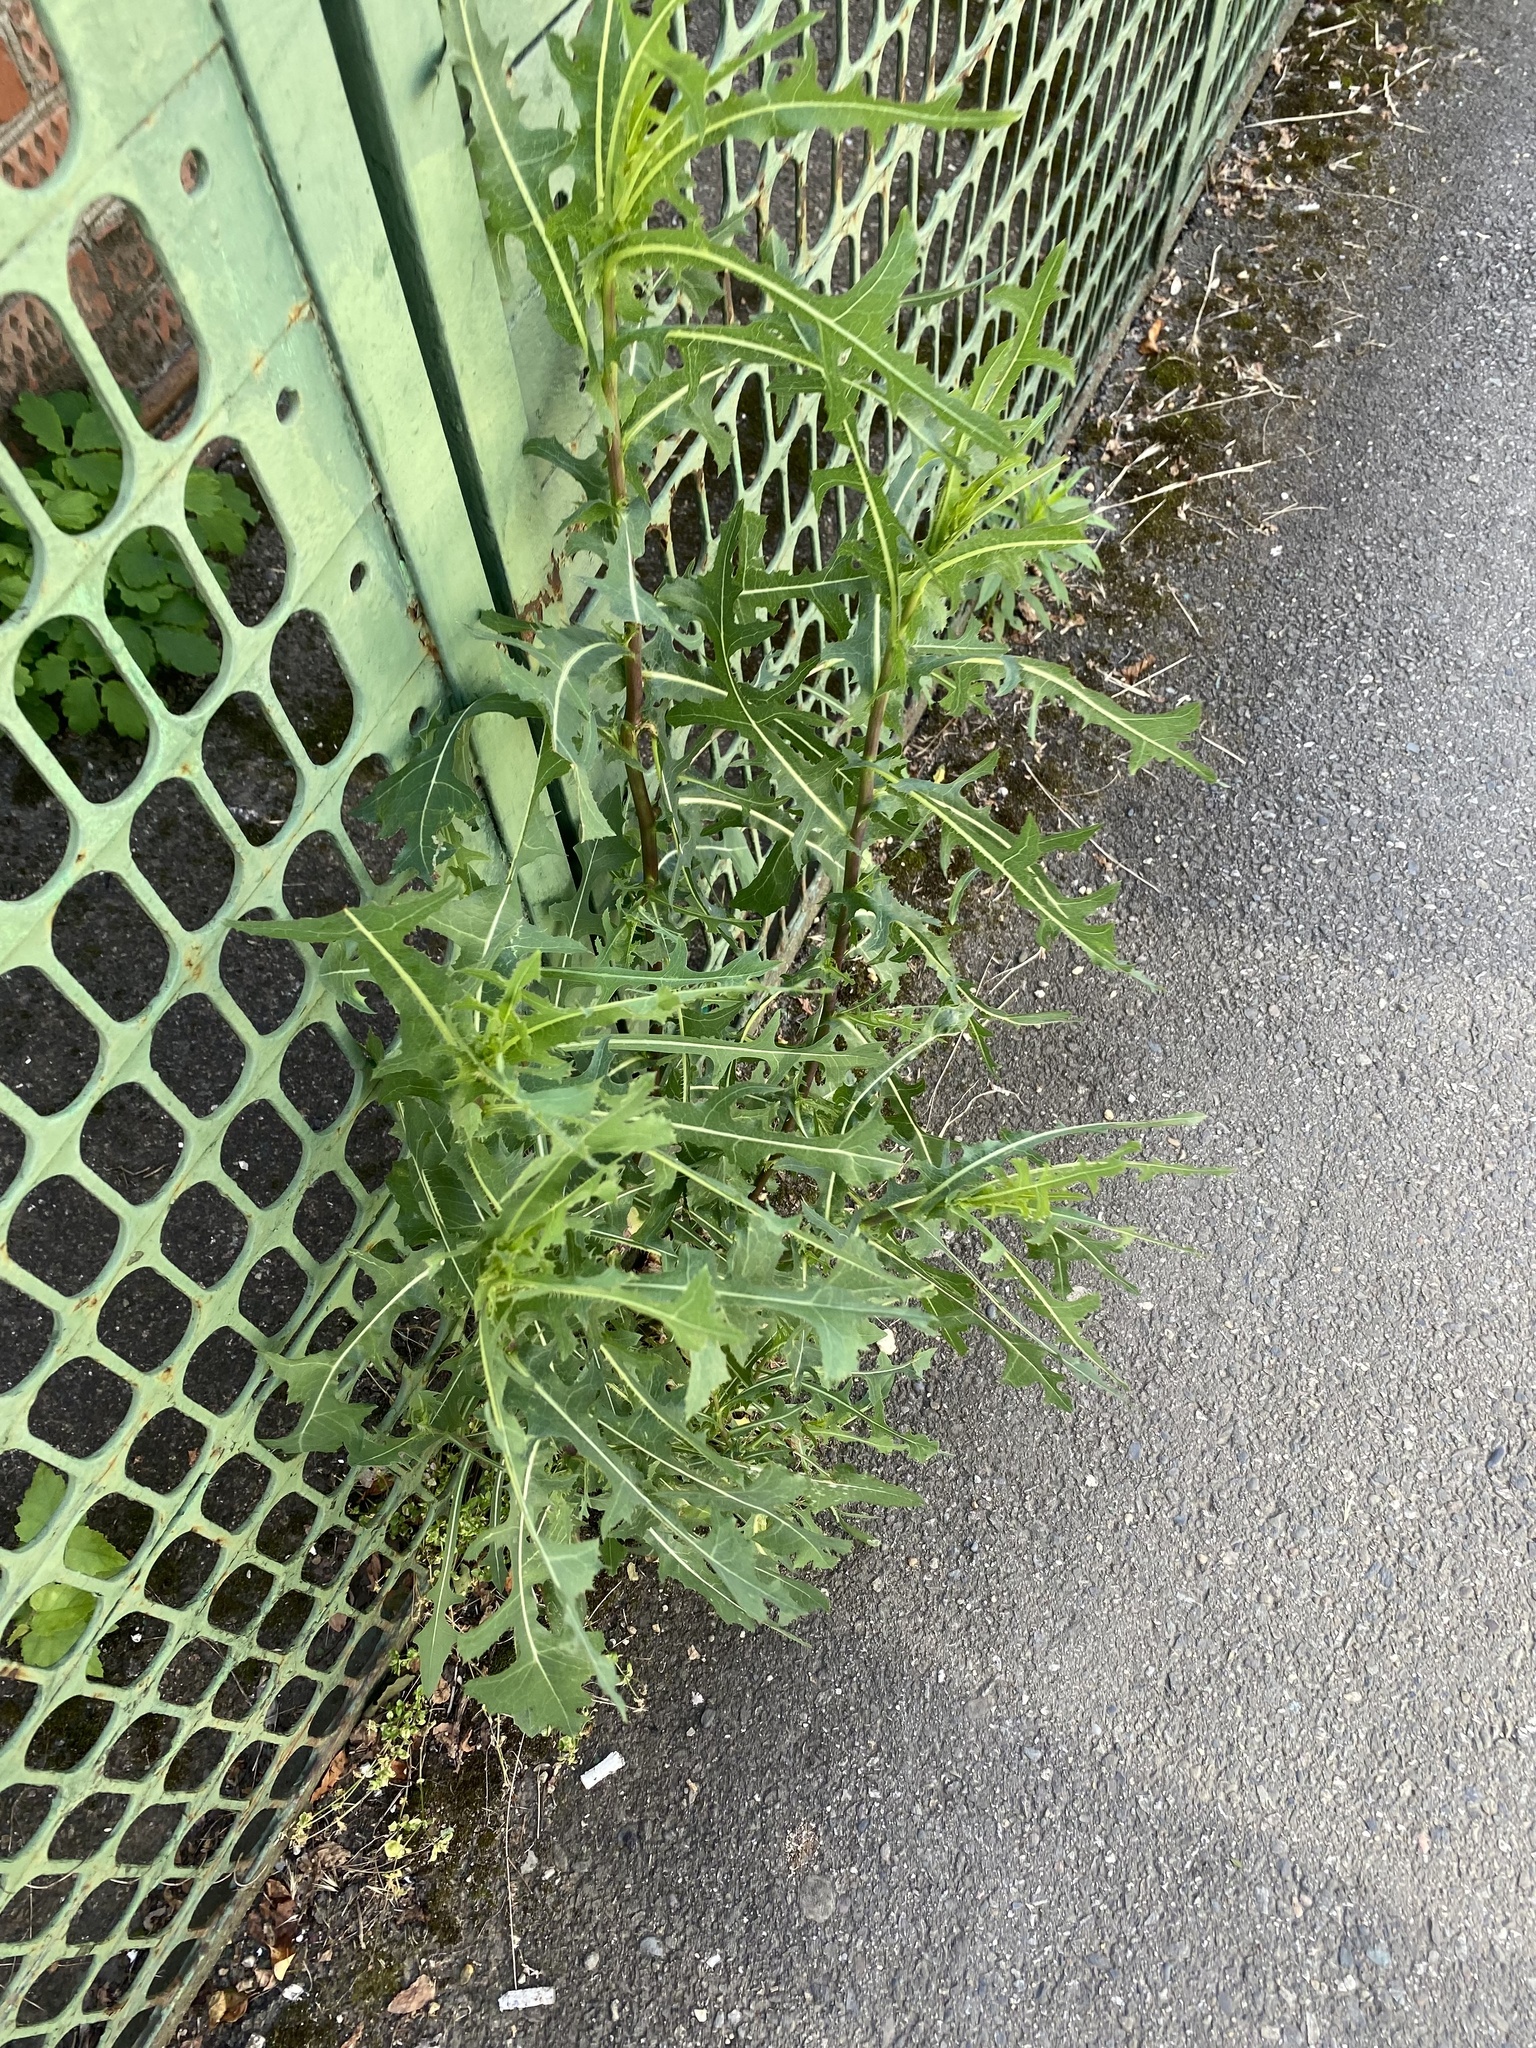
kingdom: Plantae
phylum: Tracheophyta
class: Magnoliopsida
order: Asterales
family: Asteraceae
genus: Lactuca
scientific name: Lactuca serriola
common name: Prickly lettuce
